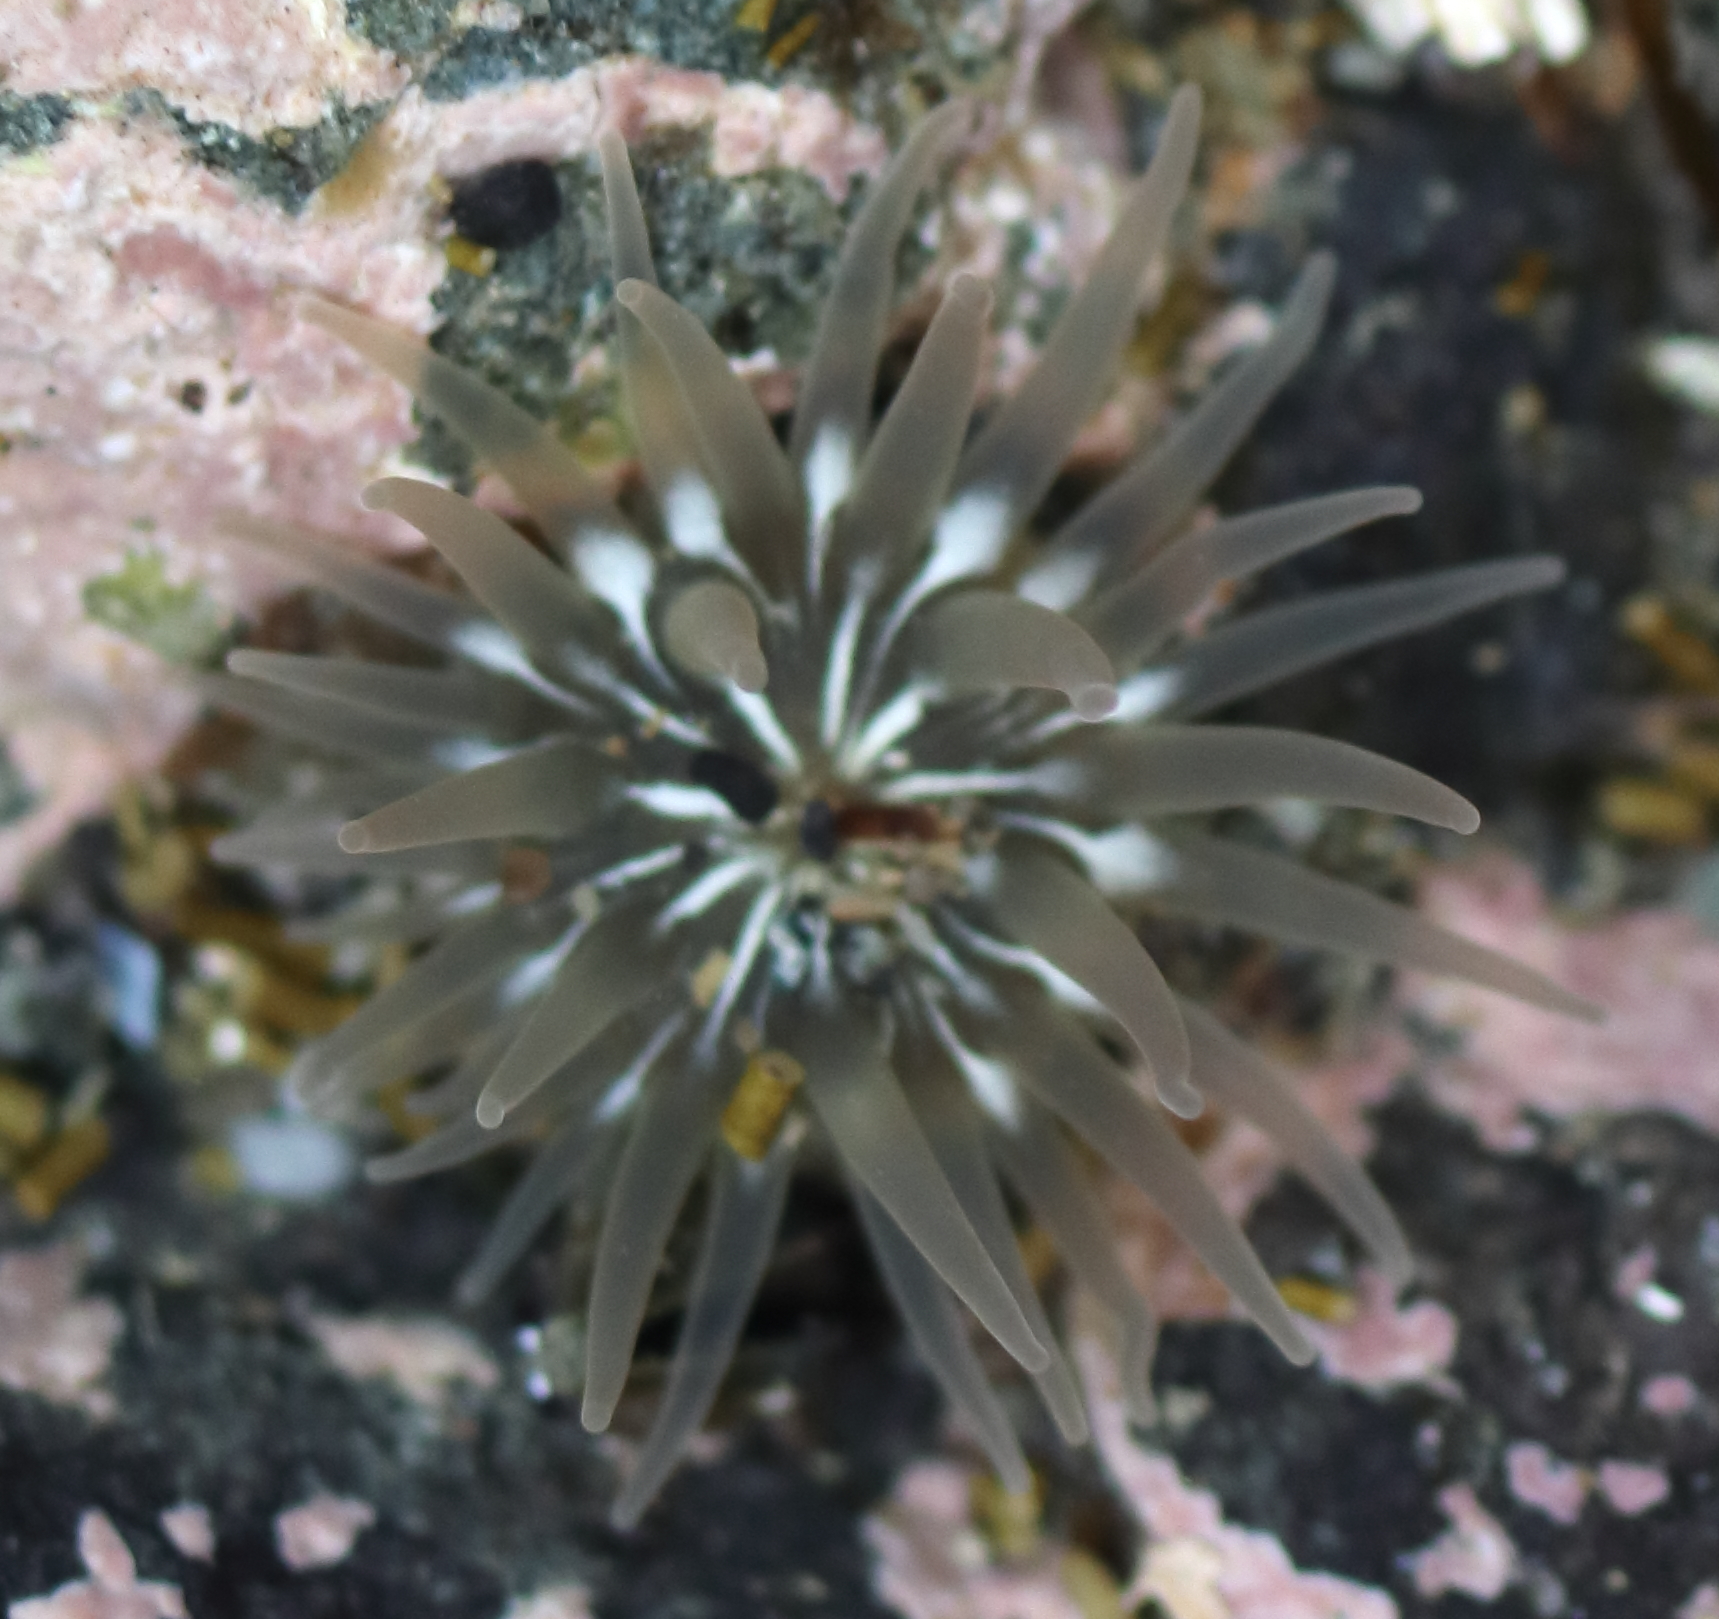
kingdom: Animalia
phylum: Cnidaria
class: Anthozoa
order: Actiniaria
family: Actiniidae
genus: Aulactinia
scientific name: Aulactinia incubans
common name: Incubating anemone
